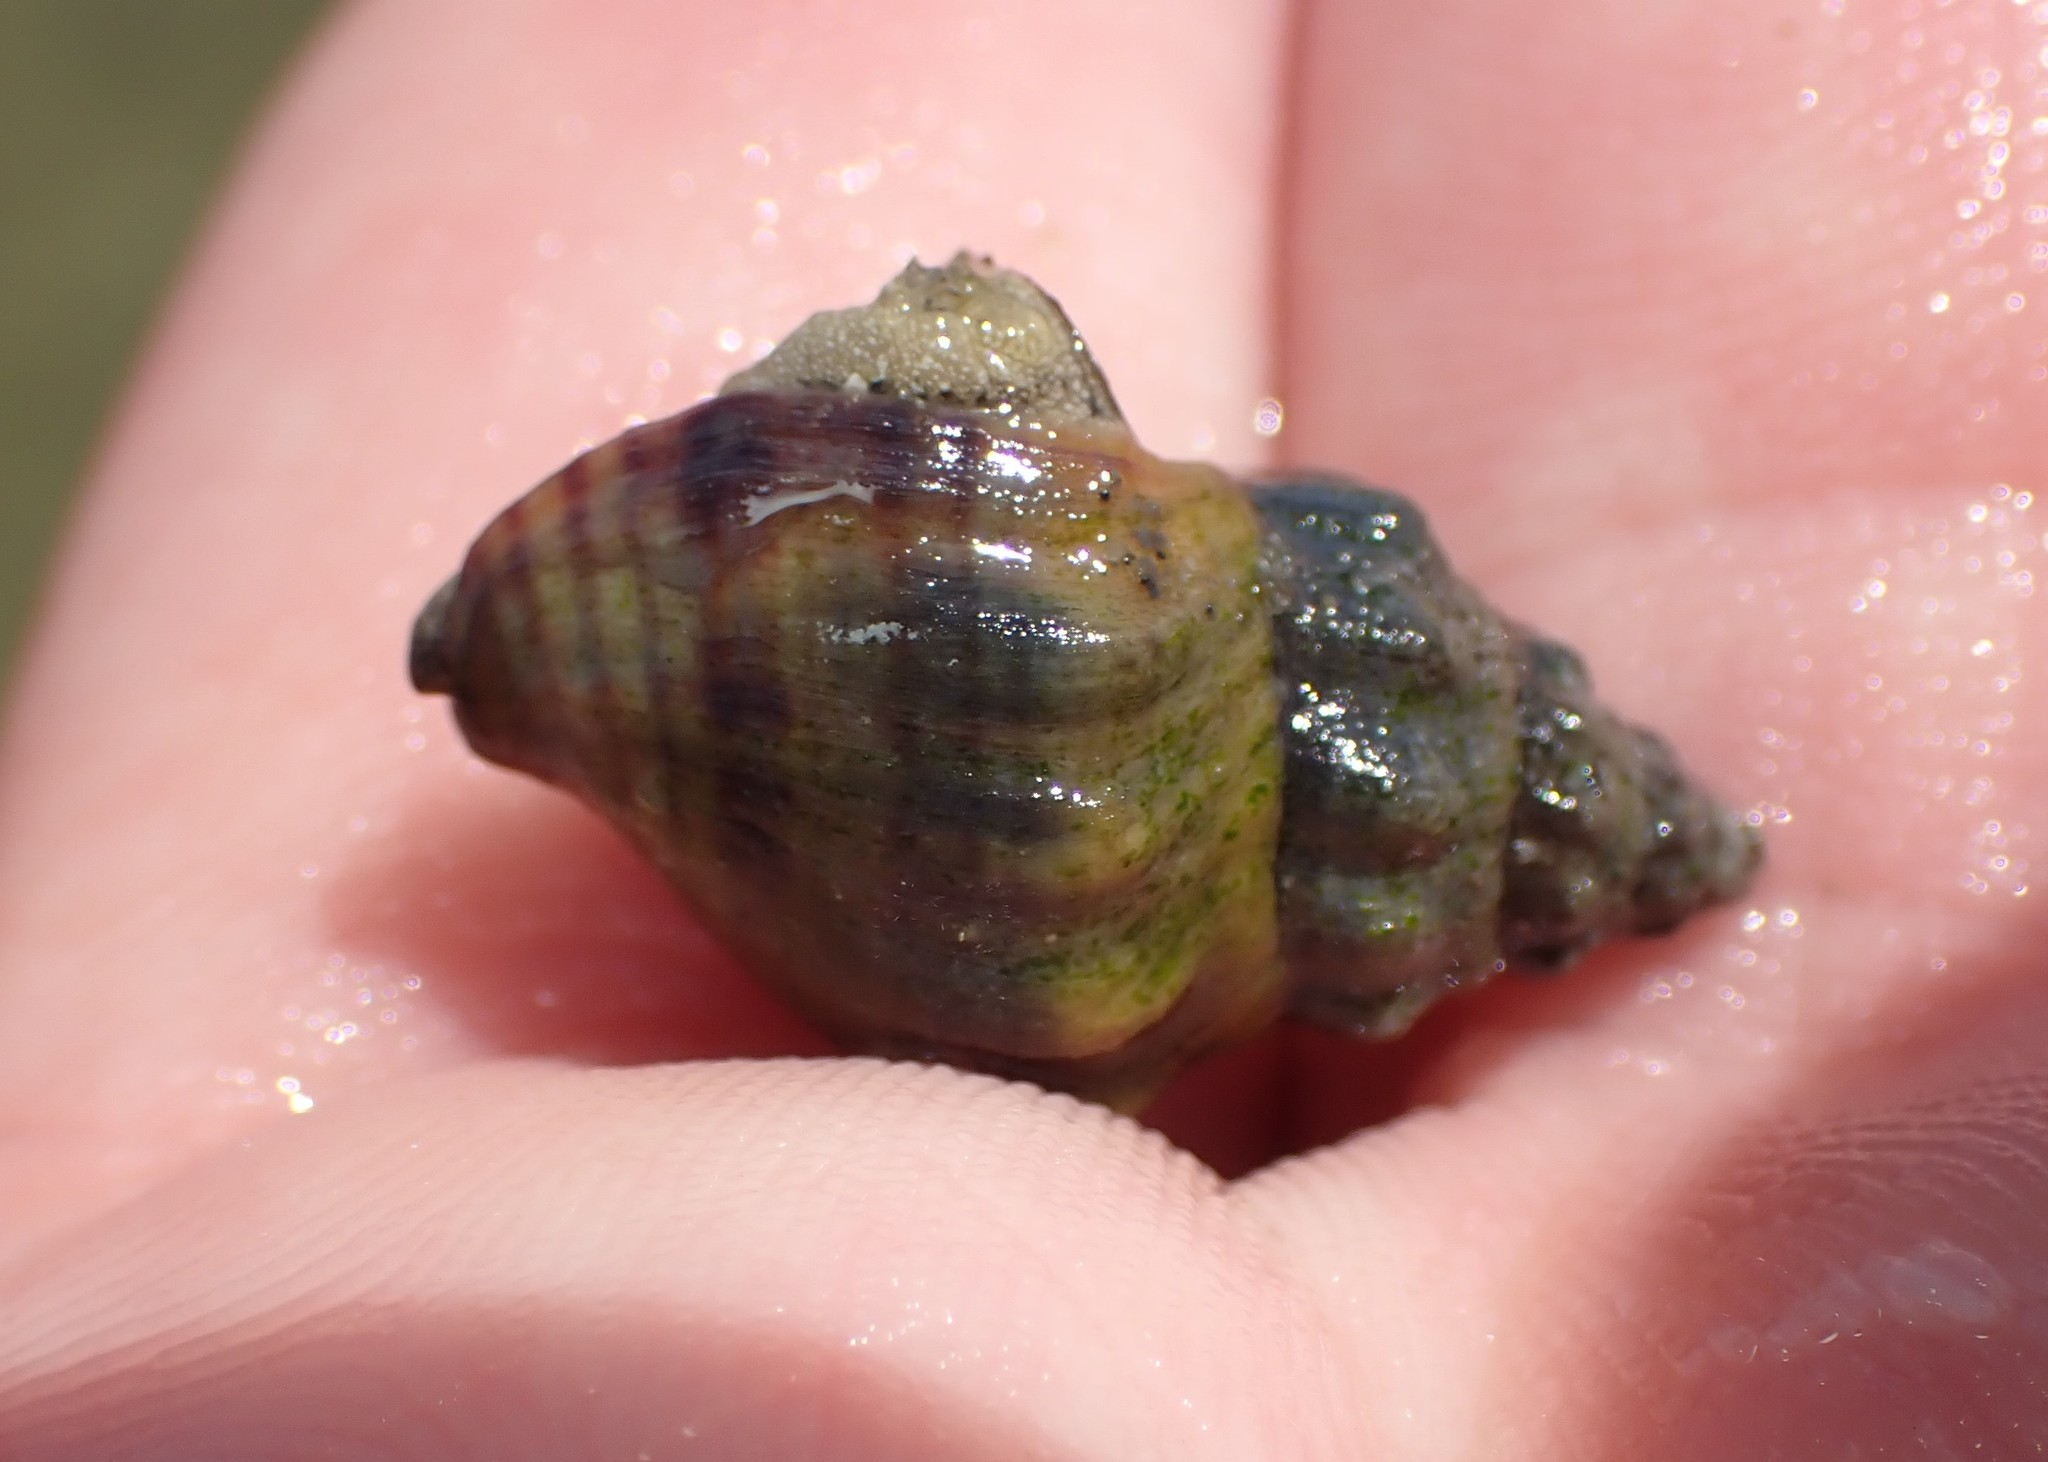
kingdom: Animalia
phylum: Mollusca
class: Gastropoda
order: Neogastropoda
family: Cominellidae
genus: Cominella
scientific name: Cominella glandiformis
